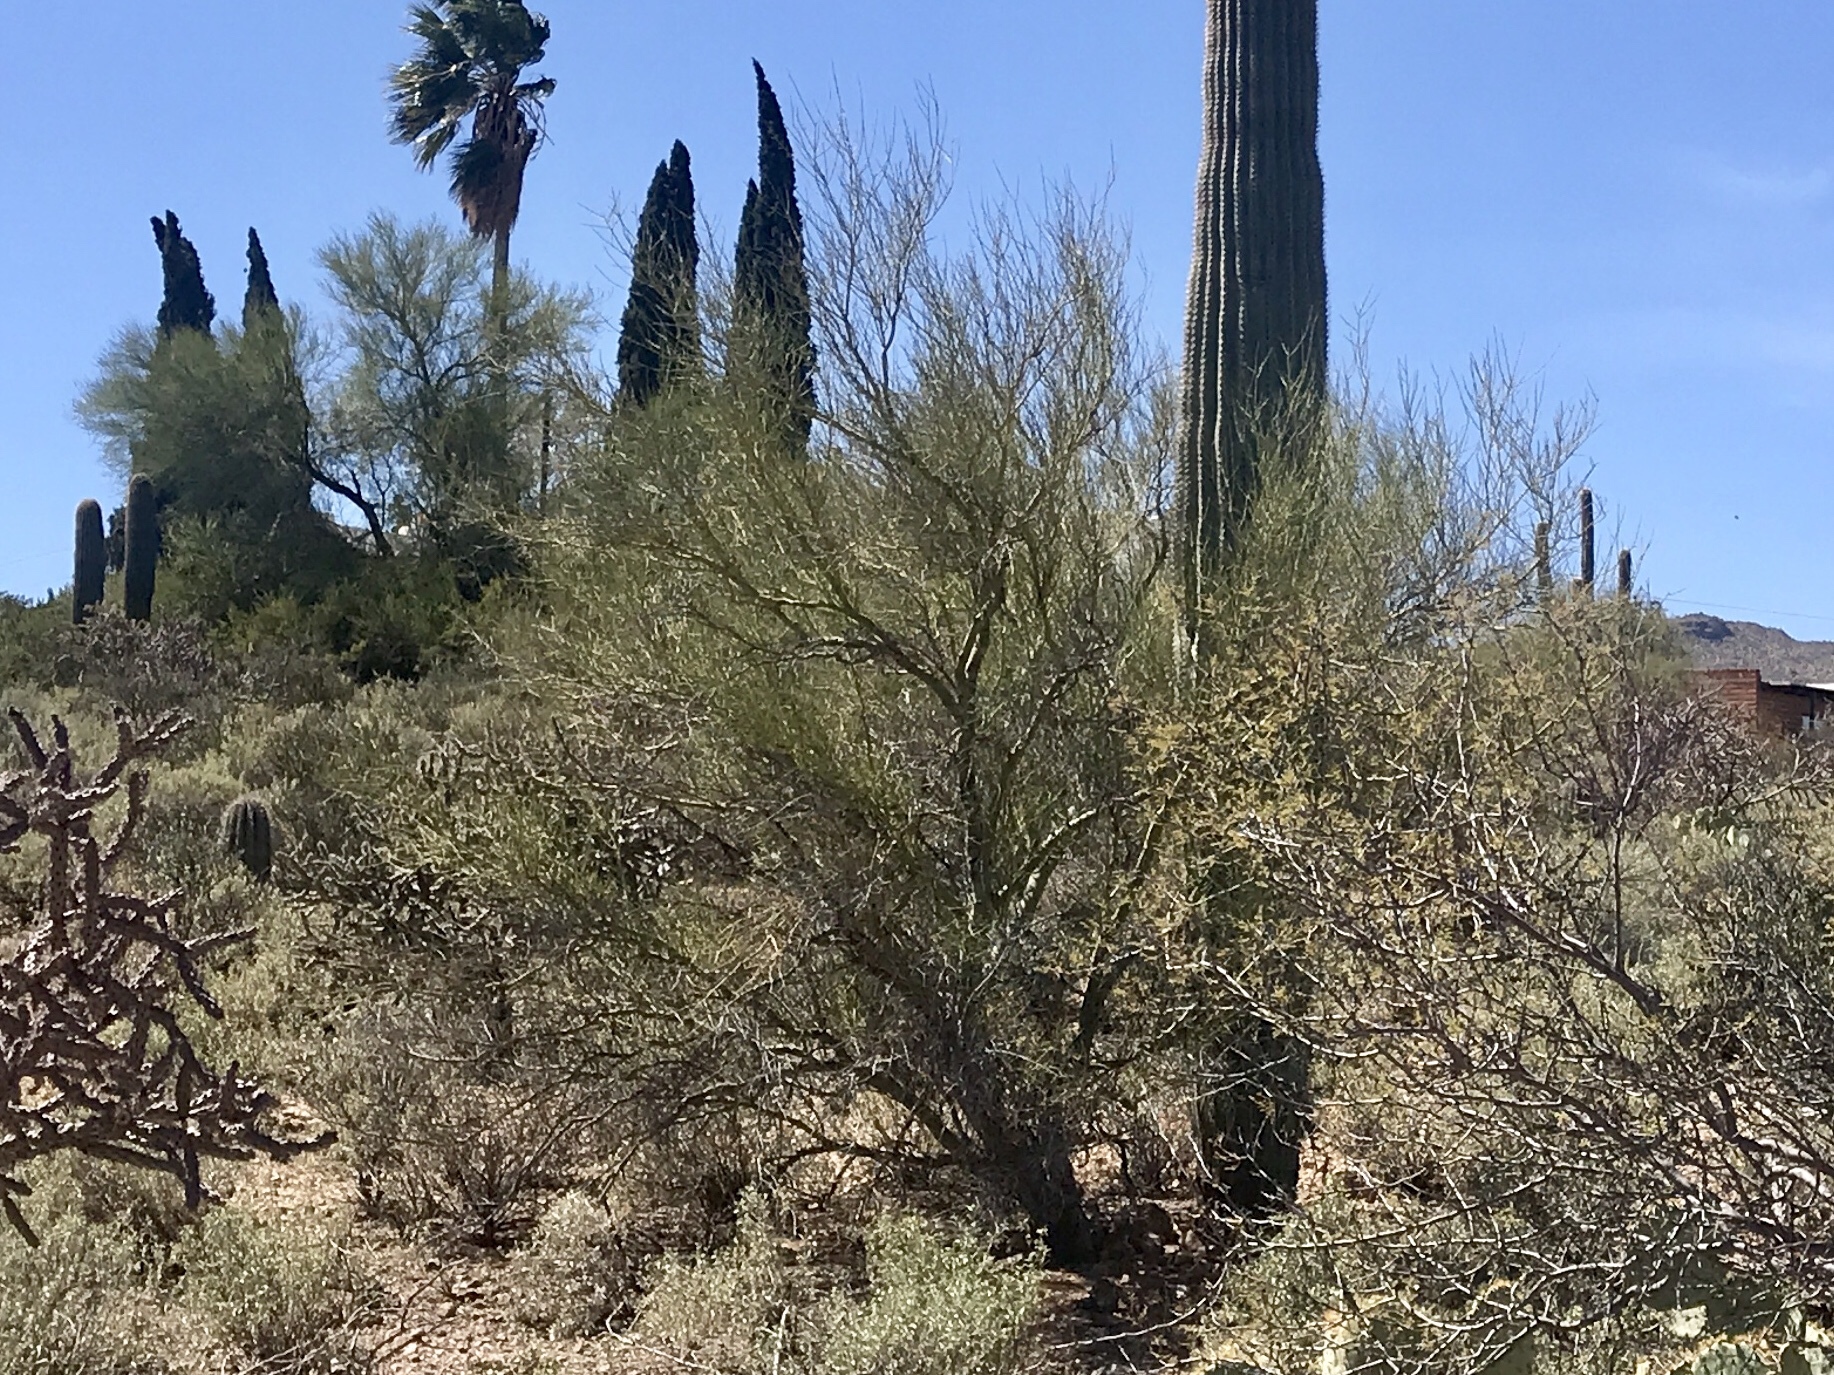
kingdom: Plantae
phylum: Tracheophyta
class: Magnoliopsida
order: Fabales
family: Fabaceae
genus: Parkinsonia
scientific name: Parkinsonia microphylla
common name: Yellow paloverde
